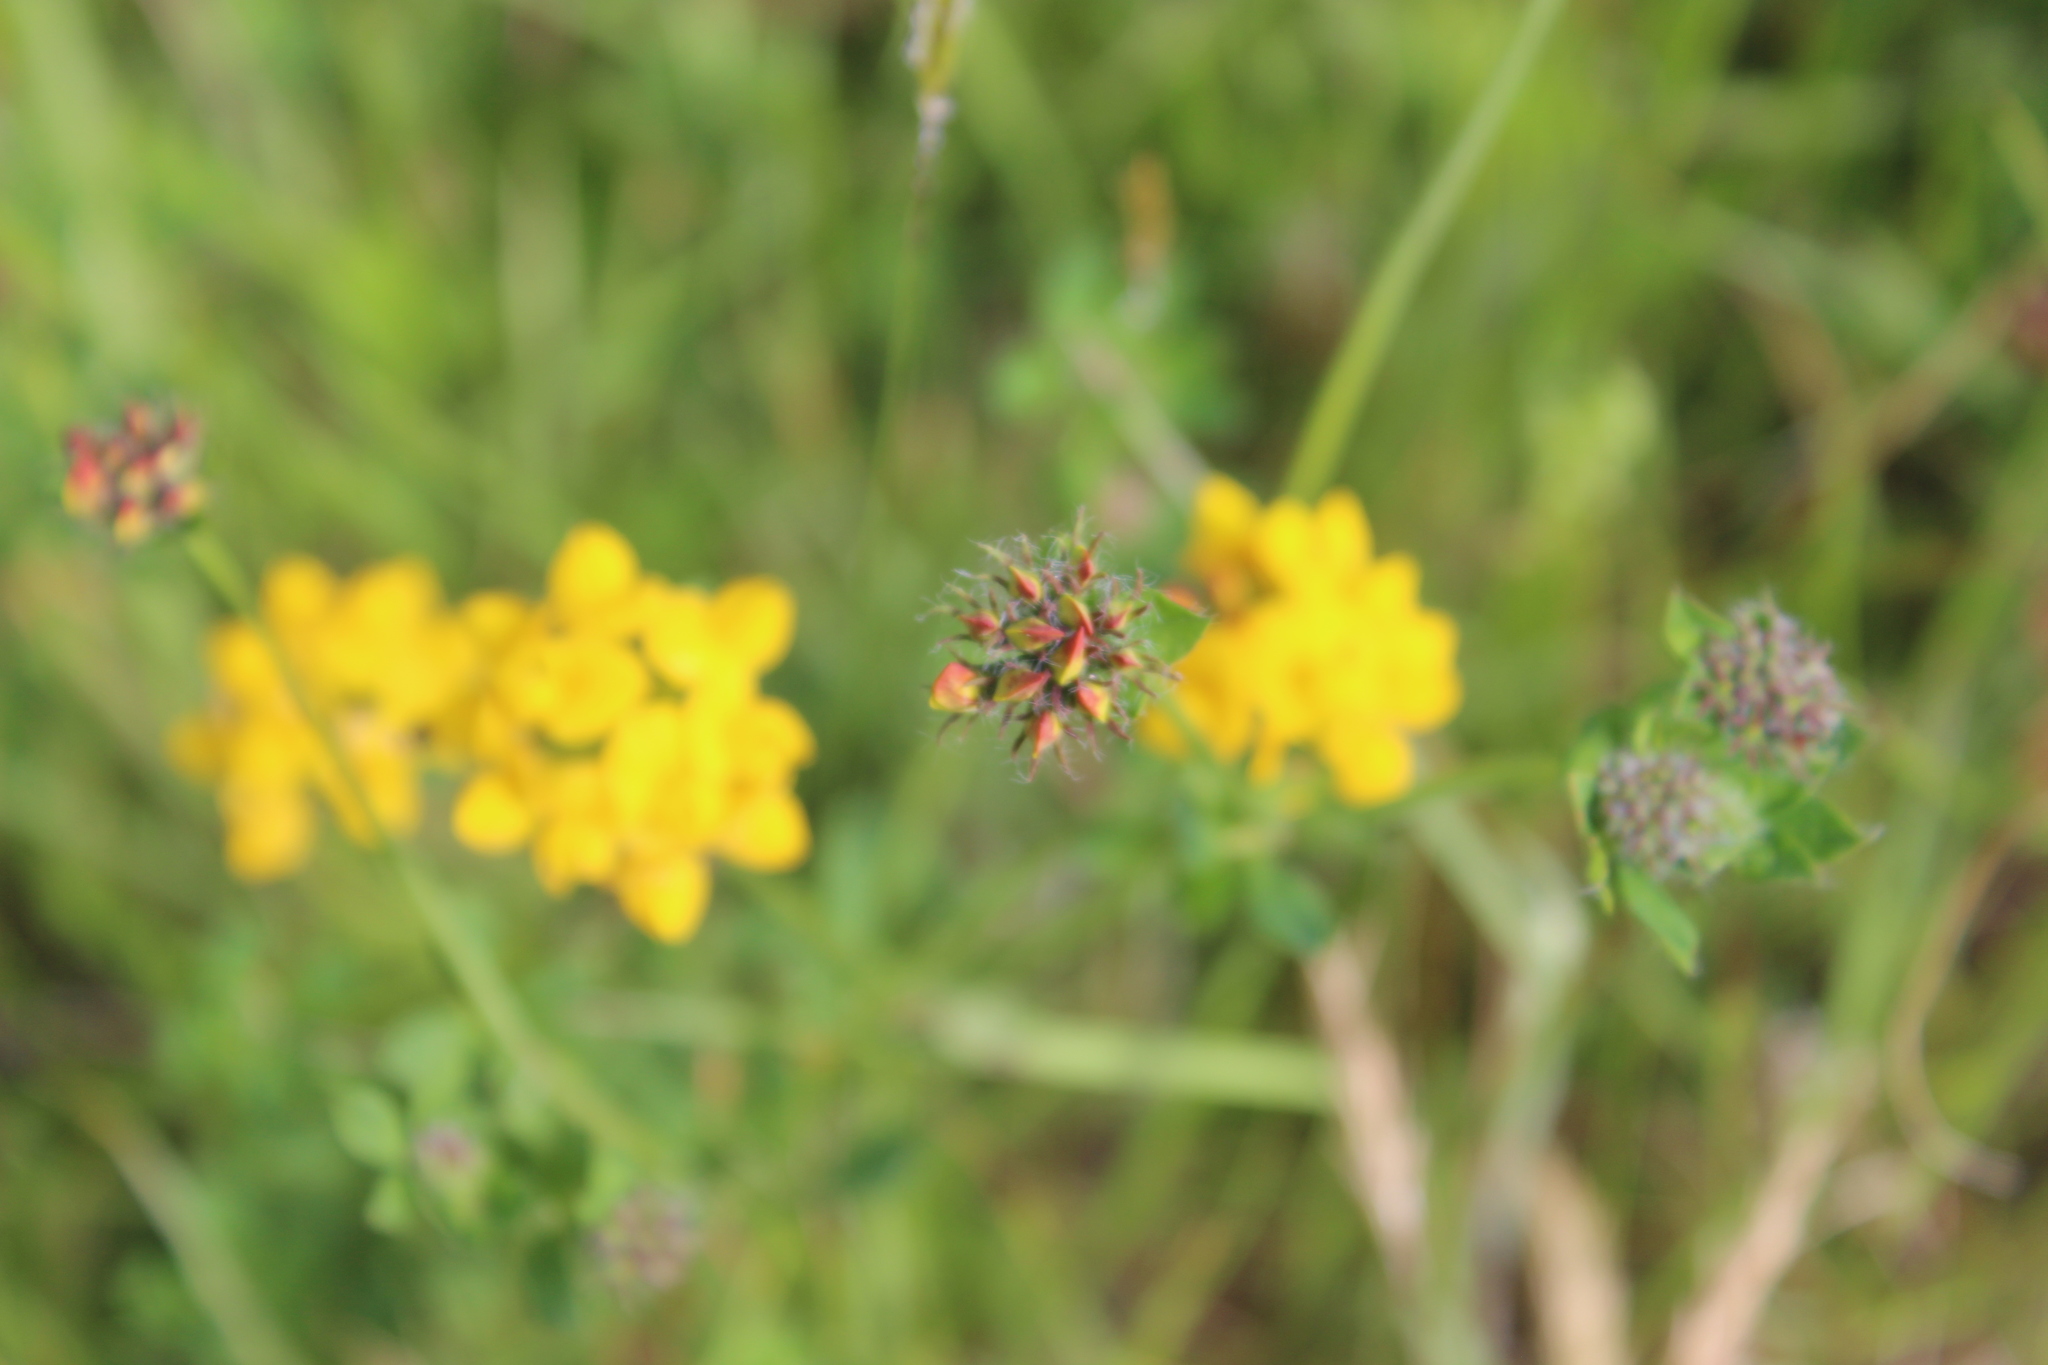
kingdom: Plantae
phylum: Tracheophyta
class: Magnoliopsida
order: Fabales
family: Fabaceae
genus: Lotus
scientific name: Lotus pedunculatus
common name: Greater birdsfoot-trefoil
